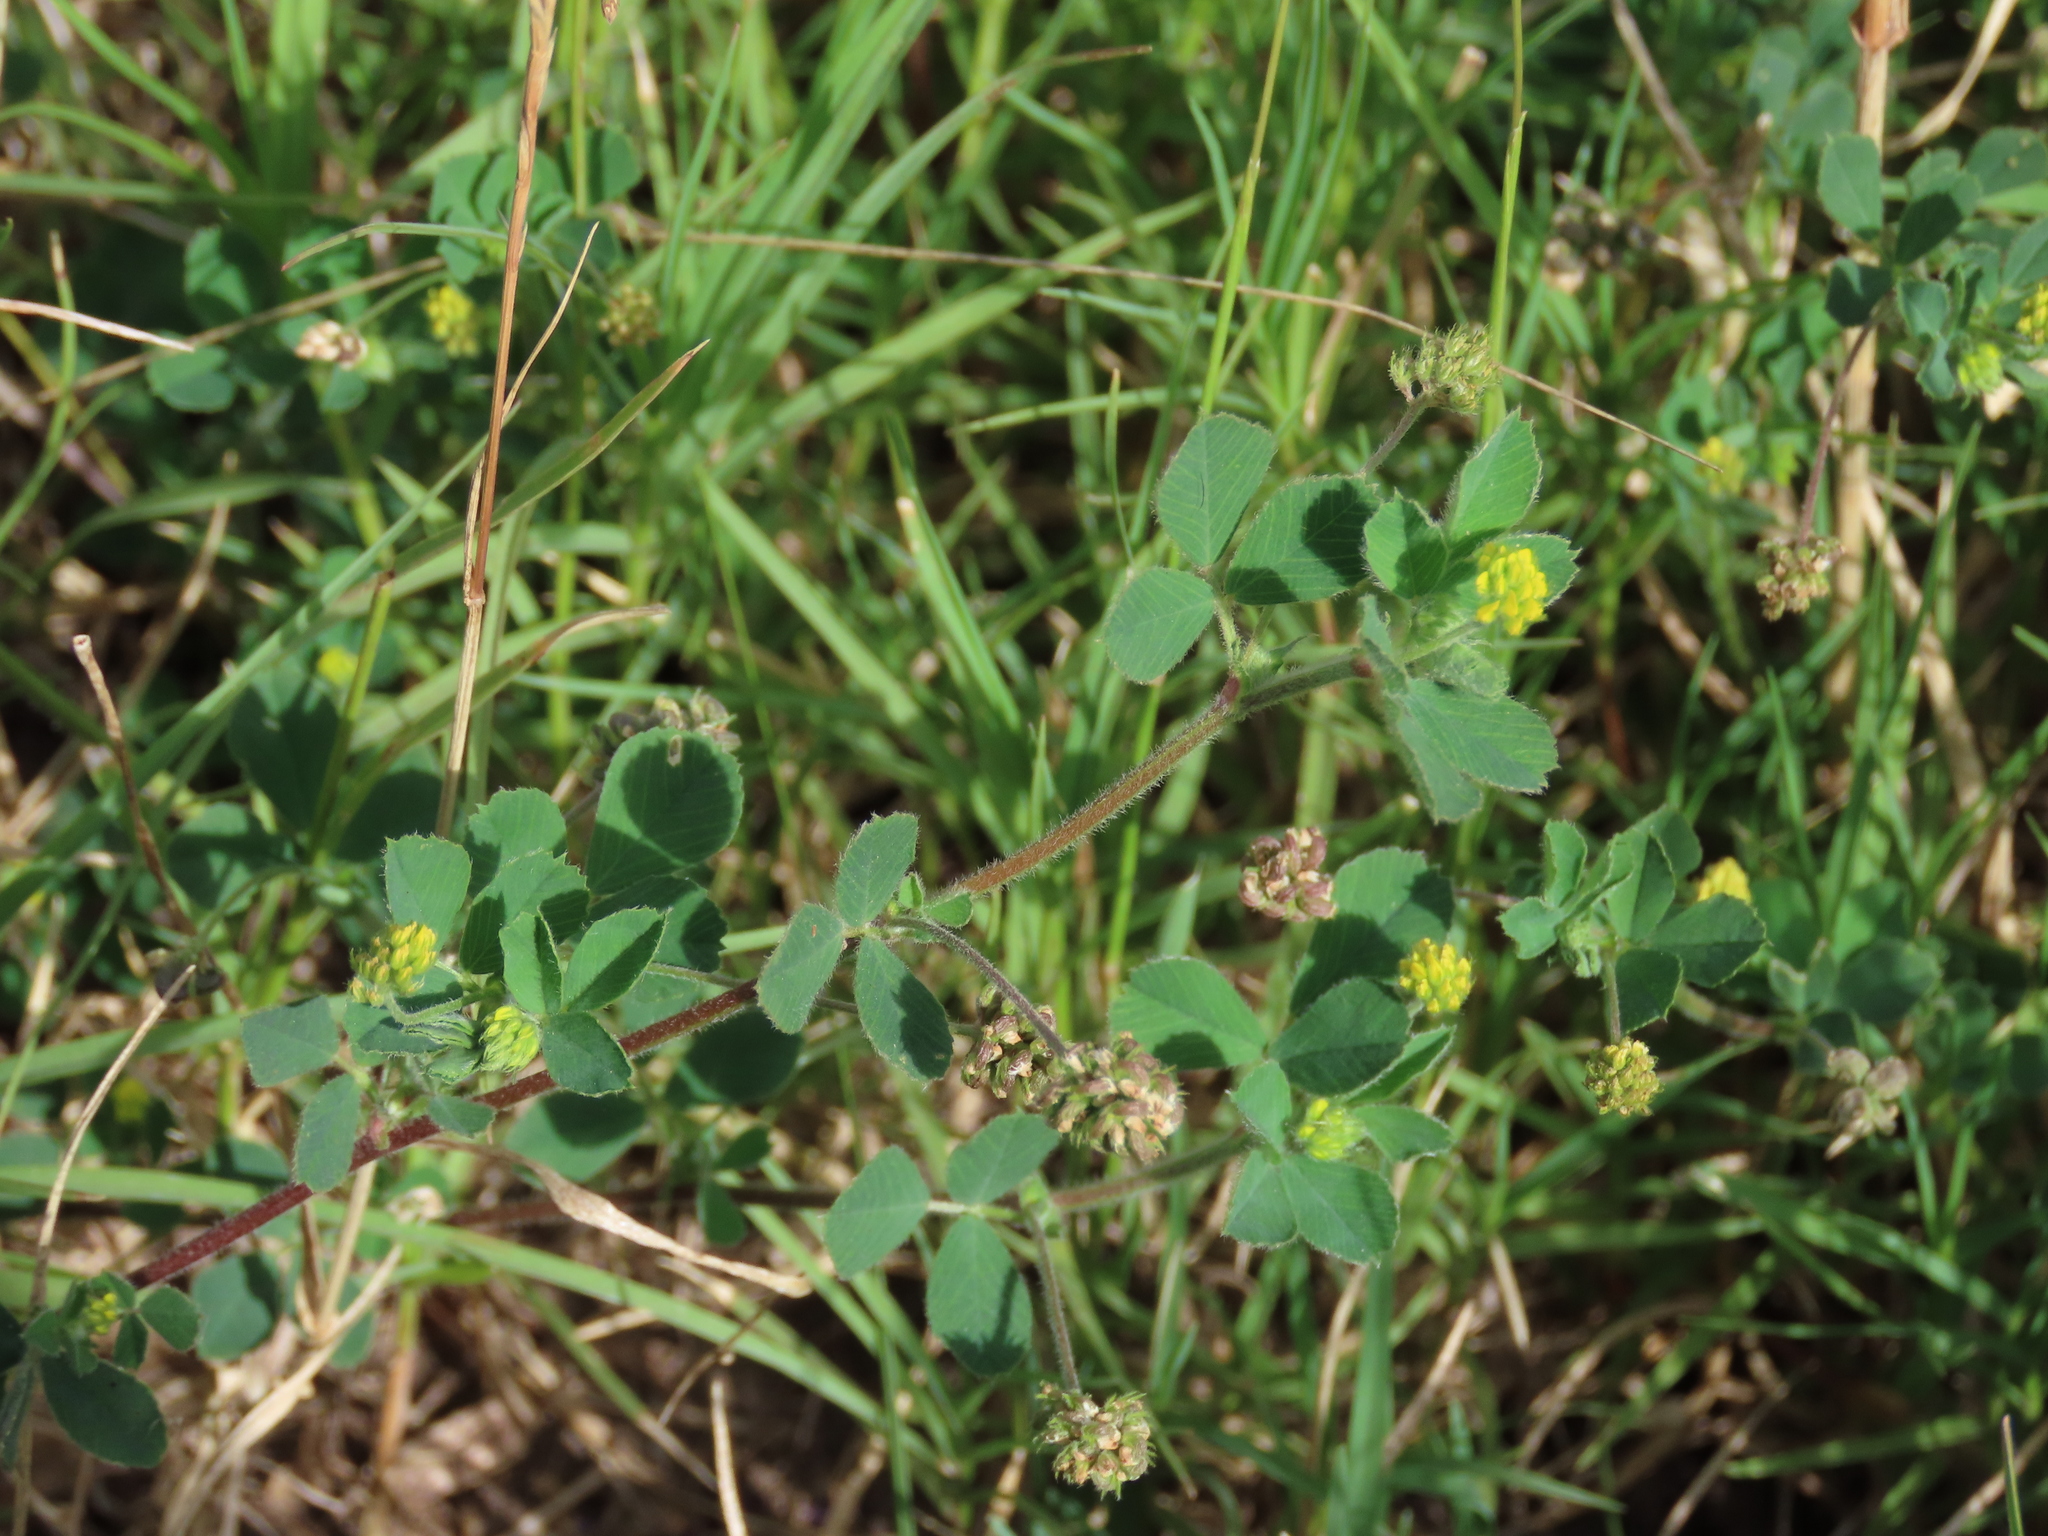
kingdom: Plantae
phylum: Tracheophyta
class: Magnoliopsida
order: Fabales
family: Fabaceae
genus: Medicago
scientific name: Medicago lupulina
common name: Black medick
